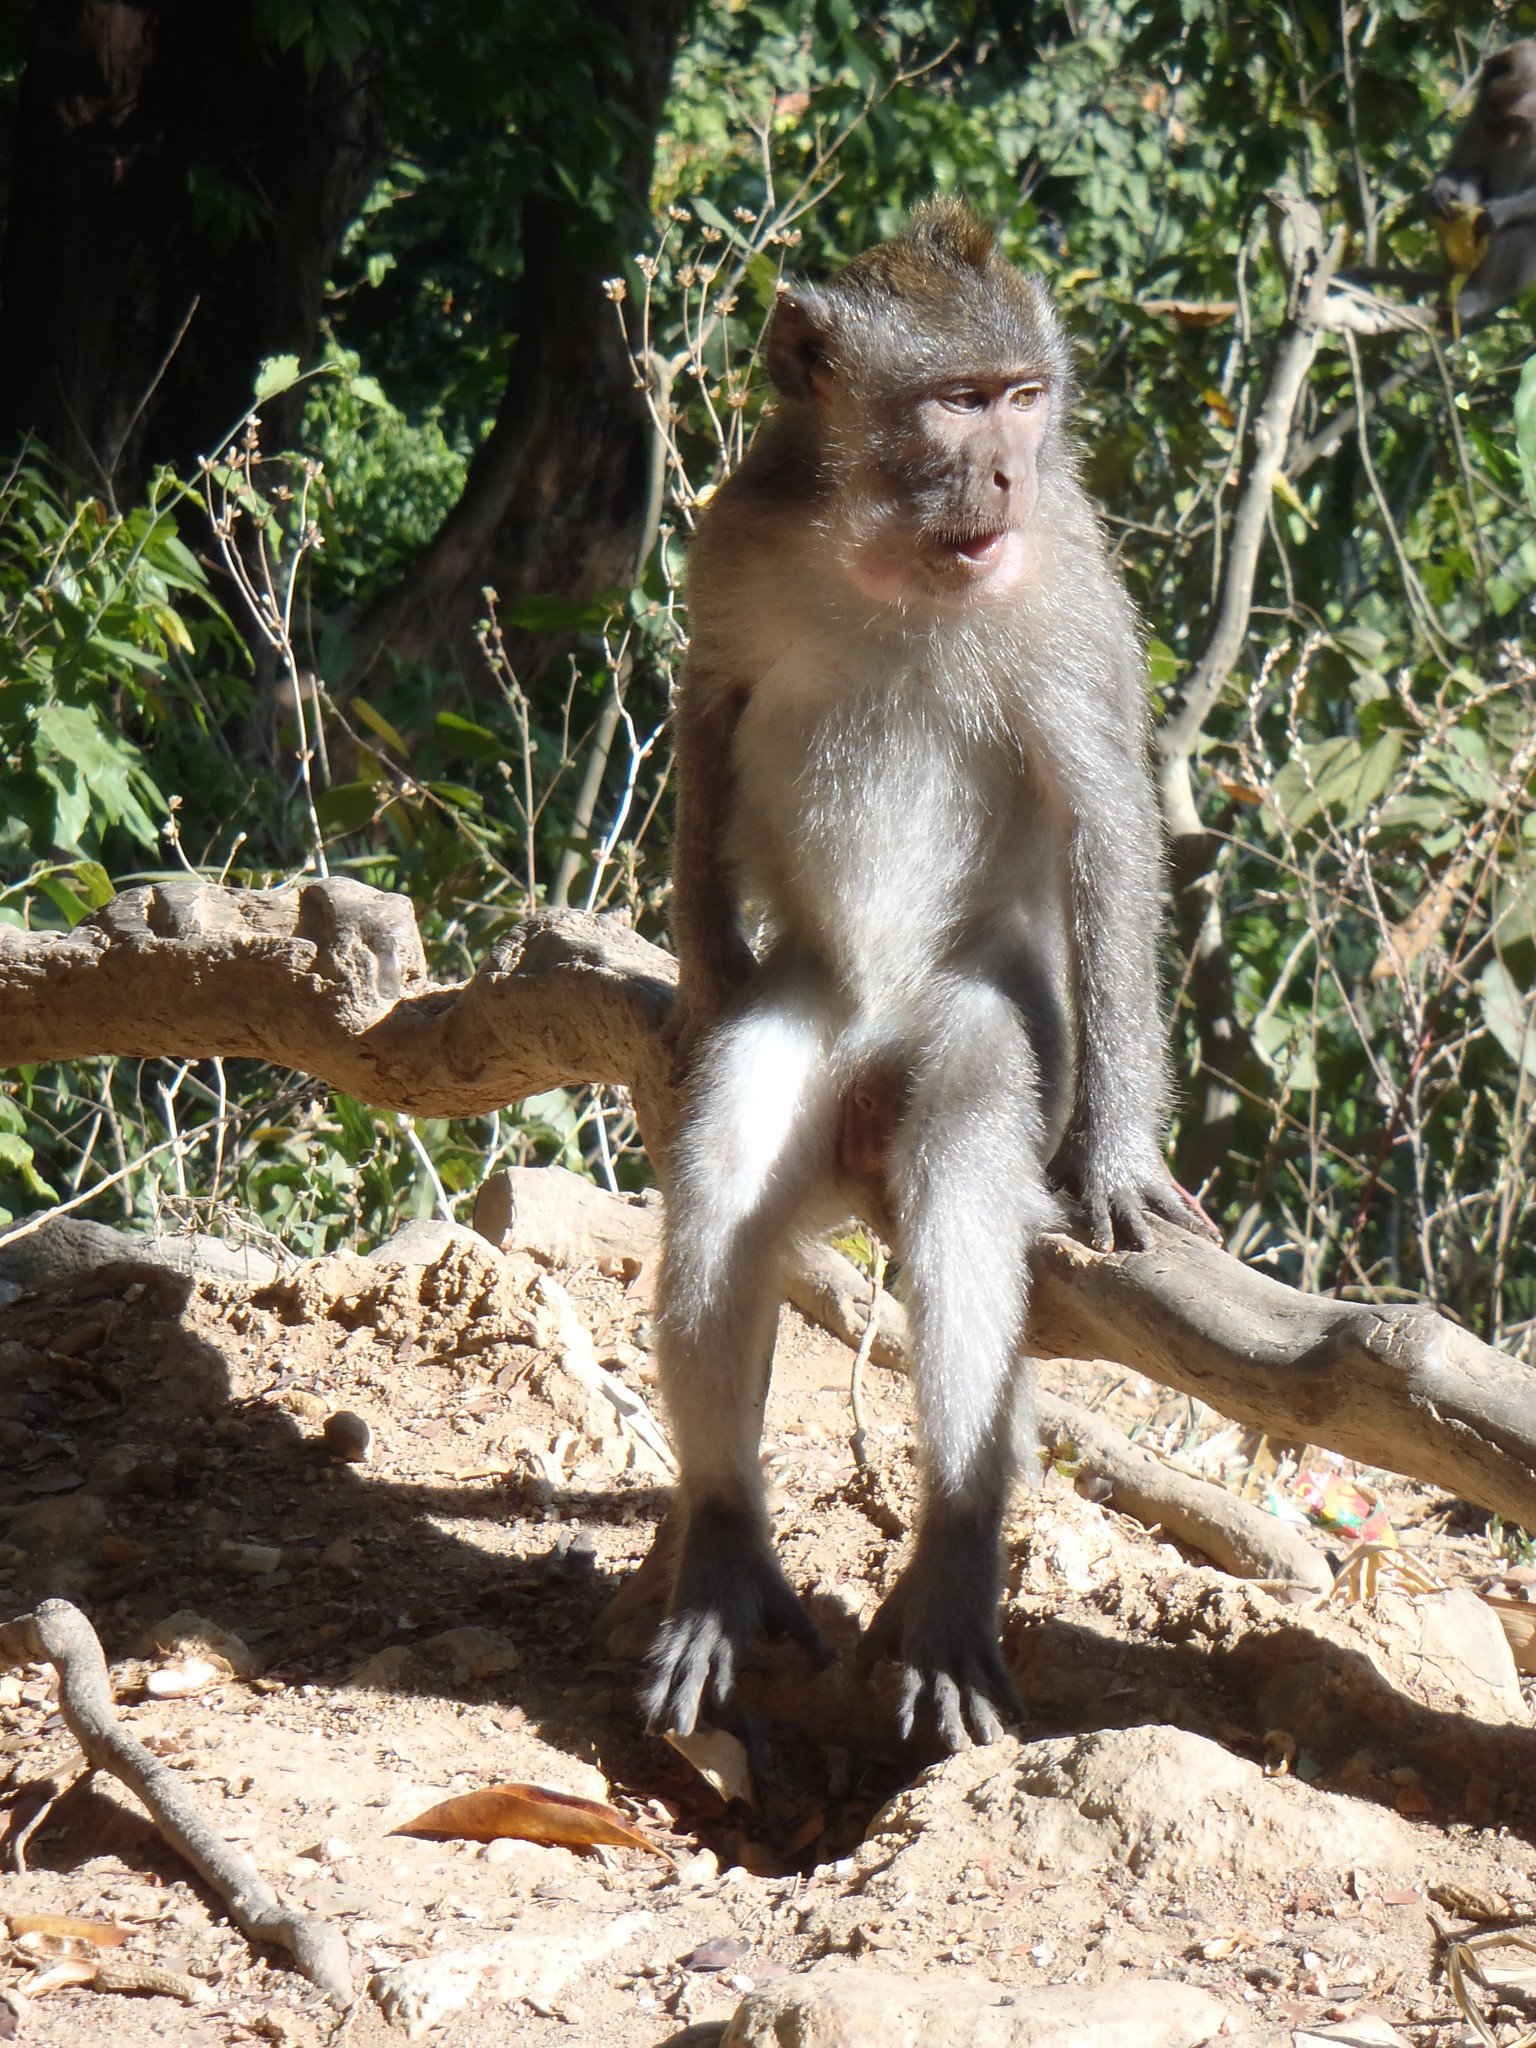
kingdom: Animalia
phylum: Chordata
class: Mammalia
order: Primates
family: Cercopithecidae
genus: Macaca
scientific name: Macaca fascicularis
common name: Crab-eating macaque
